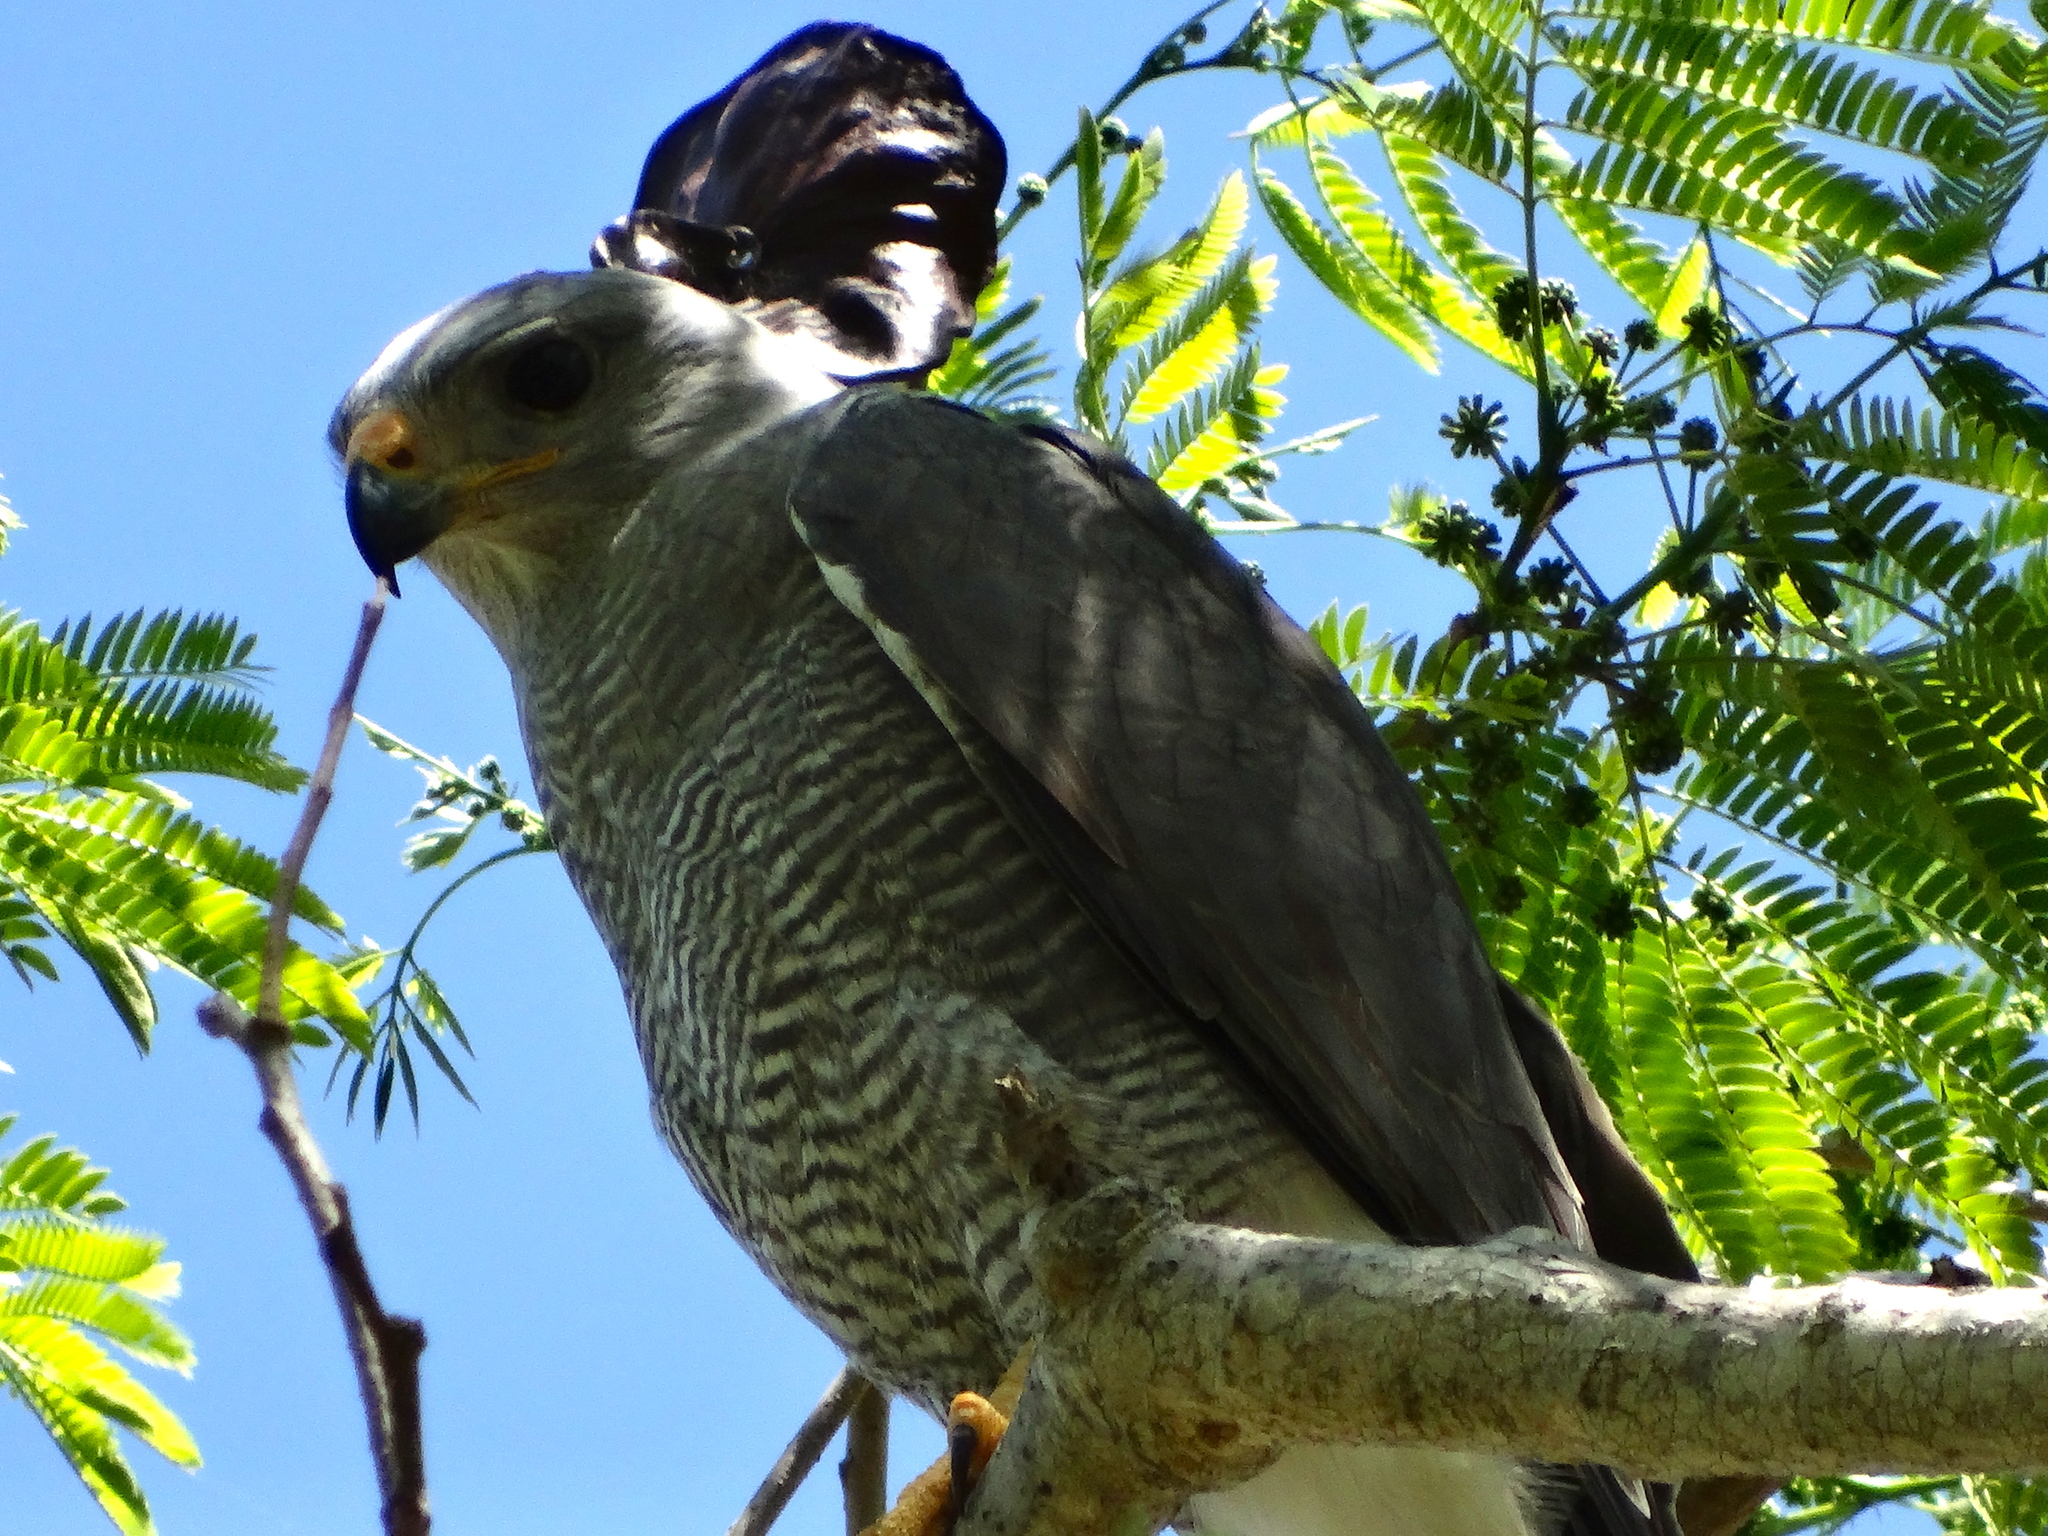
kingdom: Animalia
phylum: Chordata
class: Aves
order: Accipitriformes
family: Accipitridae
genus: Buteo
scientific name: Buteo nitidus
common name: Grey-lined hawk
